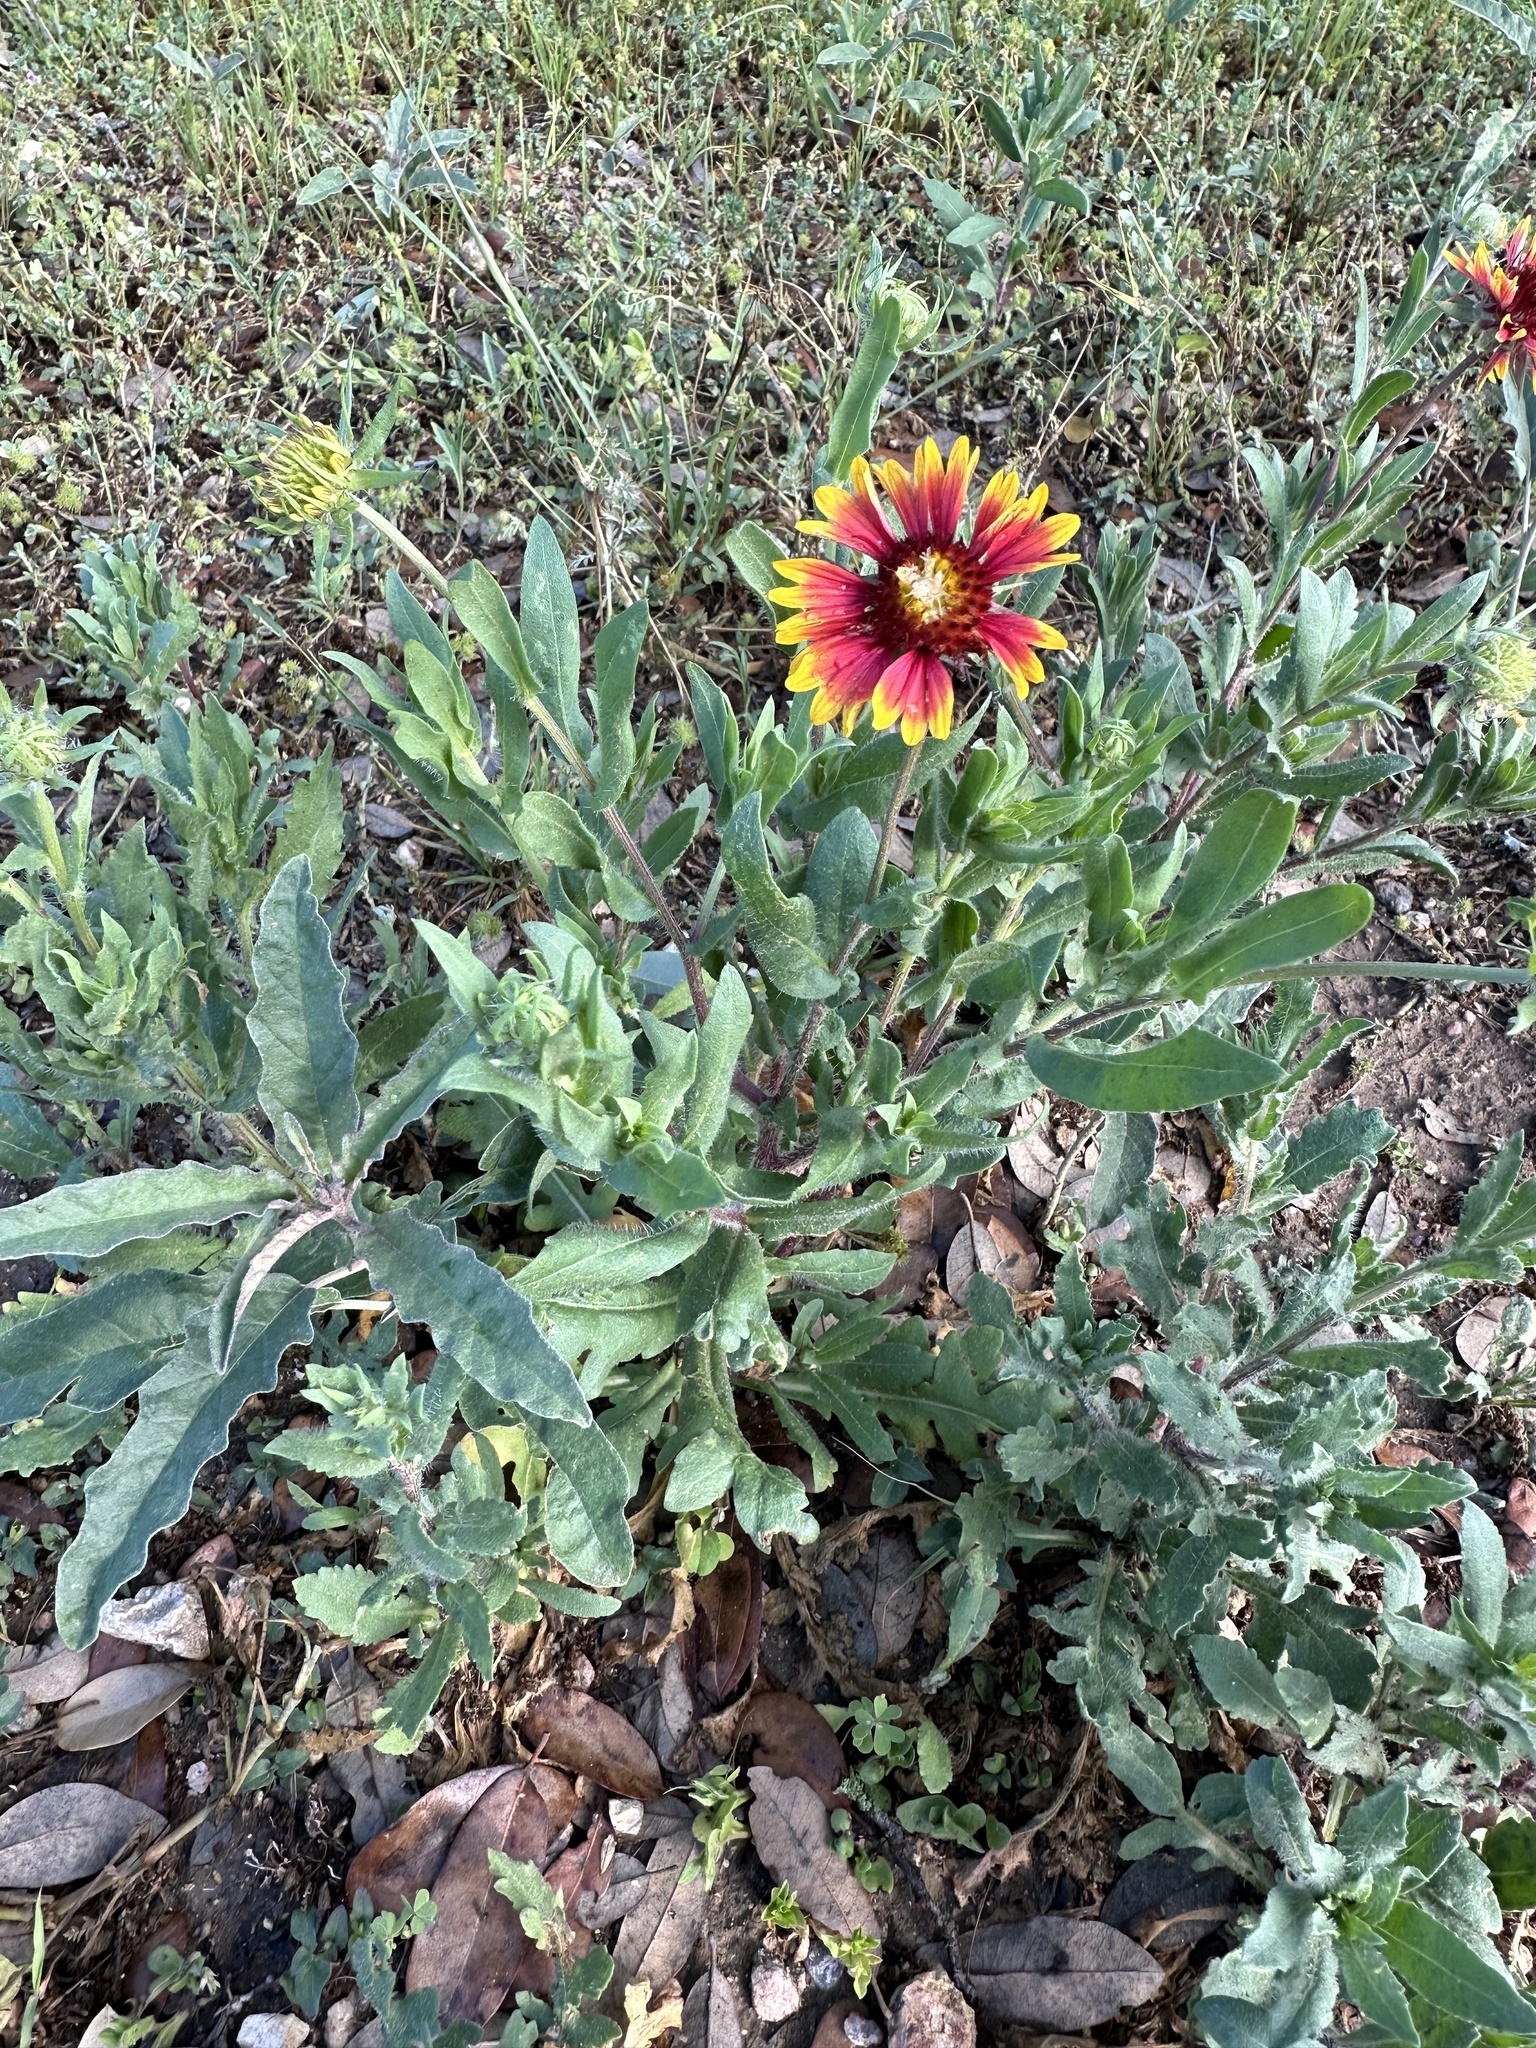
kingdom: Plantae
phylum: Tracheophyta
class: Magnoliopsida
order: Asterales
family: Asteraceae
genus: Gaillardia
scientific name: Gaillardia pulchella
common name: Firewheel
